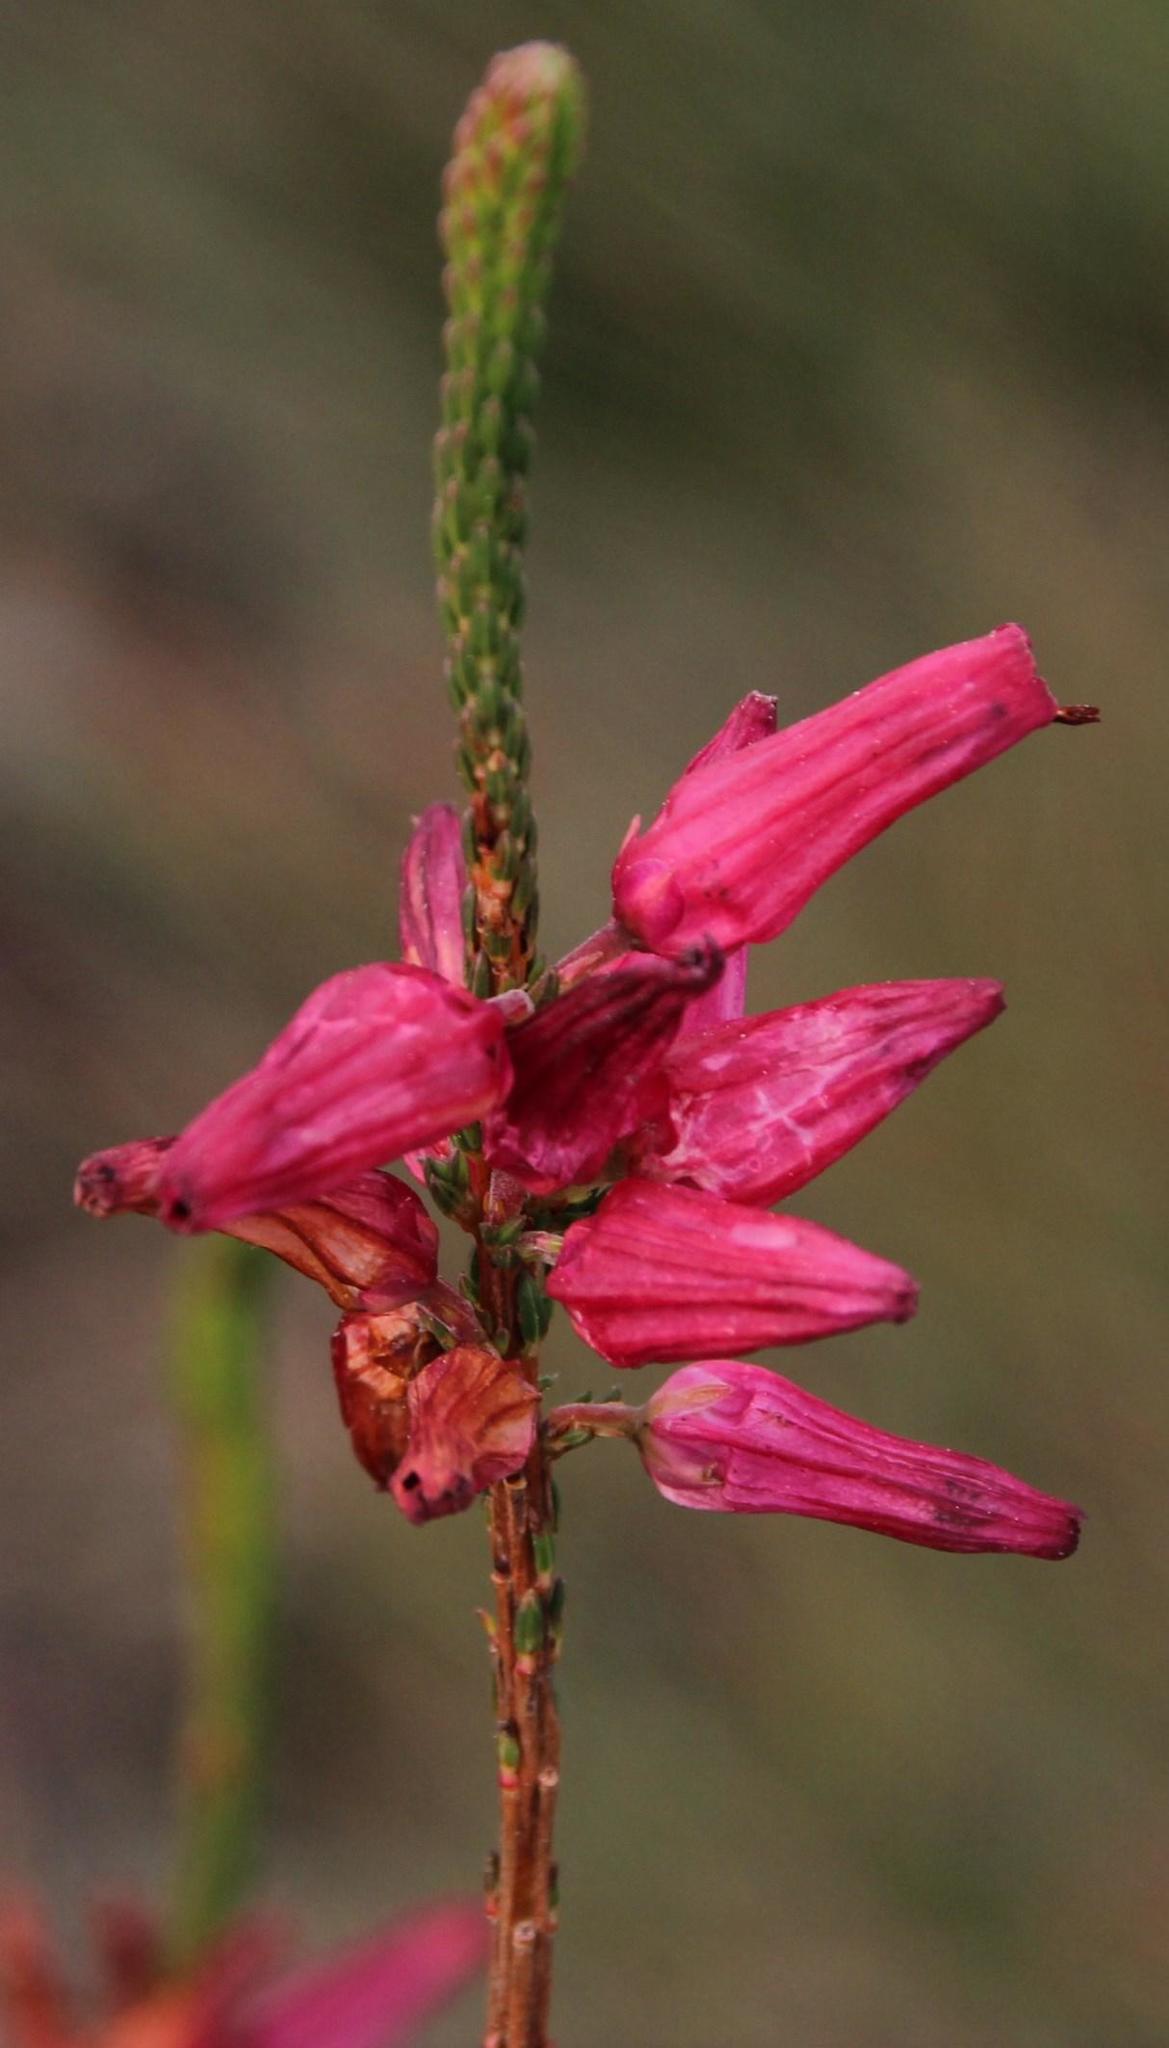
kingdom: Plantae
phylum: Tracheophyta
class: Magnoliopsida
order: Ericales
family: Ericaceae
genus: Erica
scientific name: Erica mammosa
